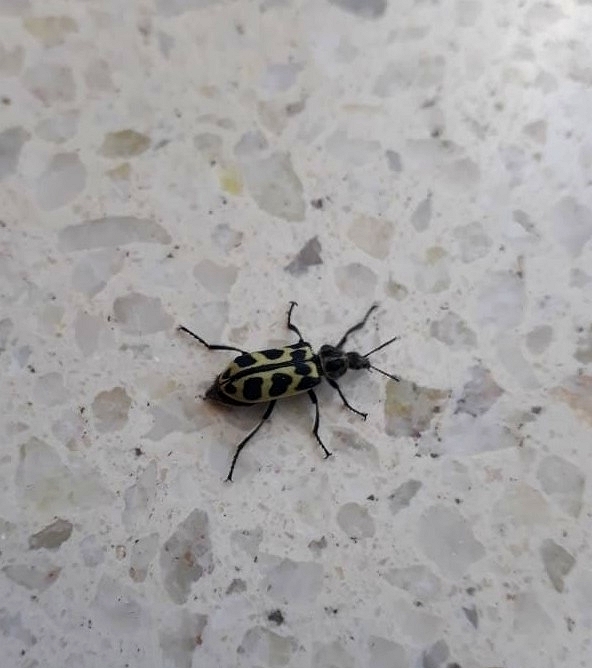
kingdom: Animalia
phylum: Arthropoda
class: Insecta
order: Coleoptera
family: Melyridae
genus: Astylus
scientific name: Astylus atromaculatus
